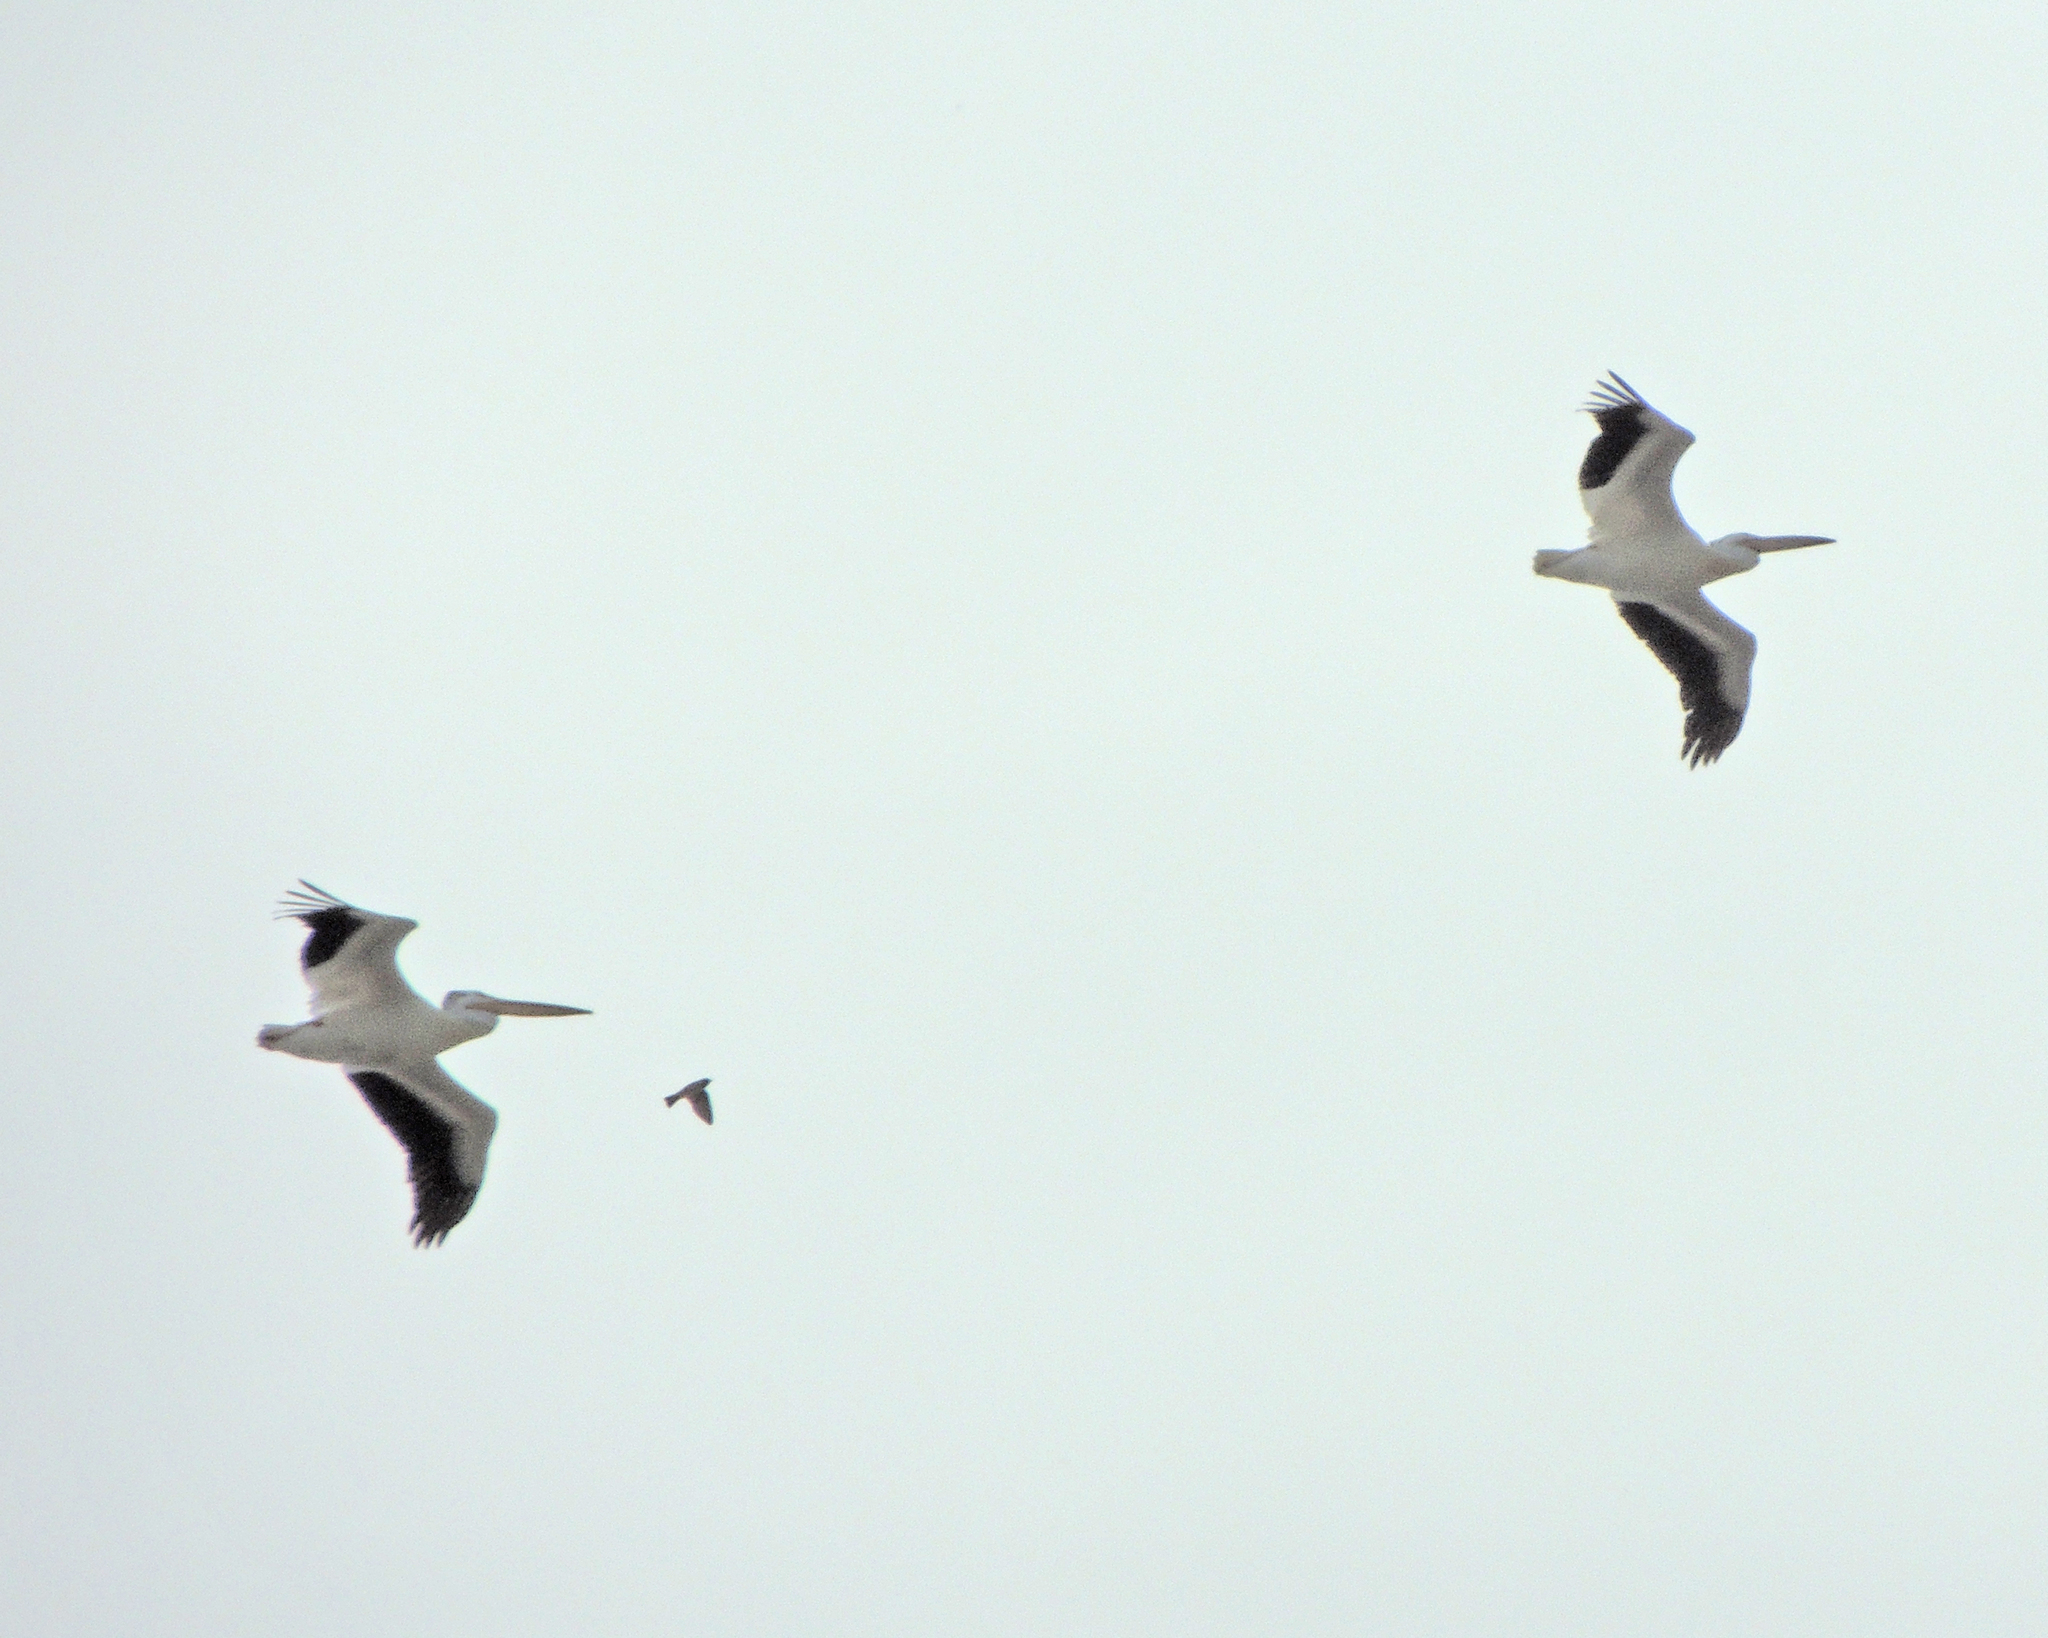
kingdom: Animalia
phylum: Chordata
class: Aves
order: Pelecaniformes
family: Pelecanidae
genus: Pelecanus
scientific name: Pelecanus erythrorhynchos
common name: American white pelican
